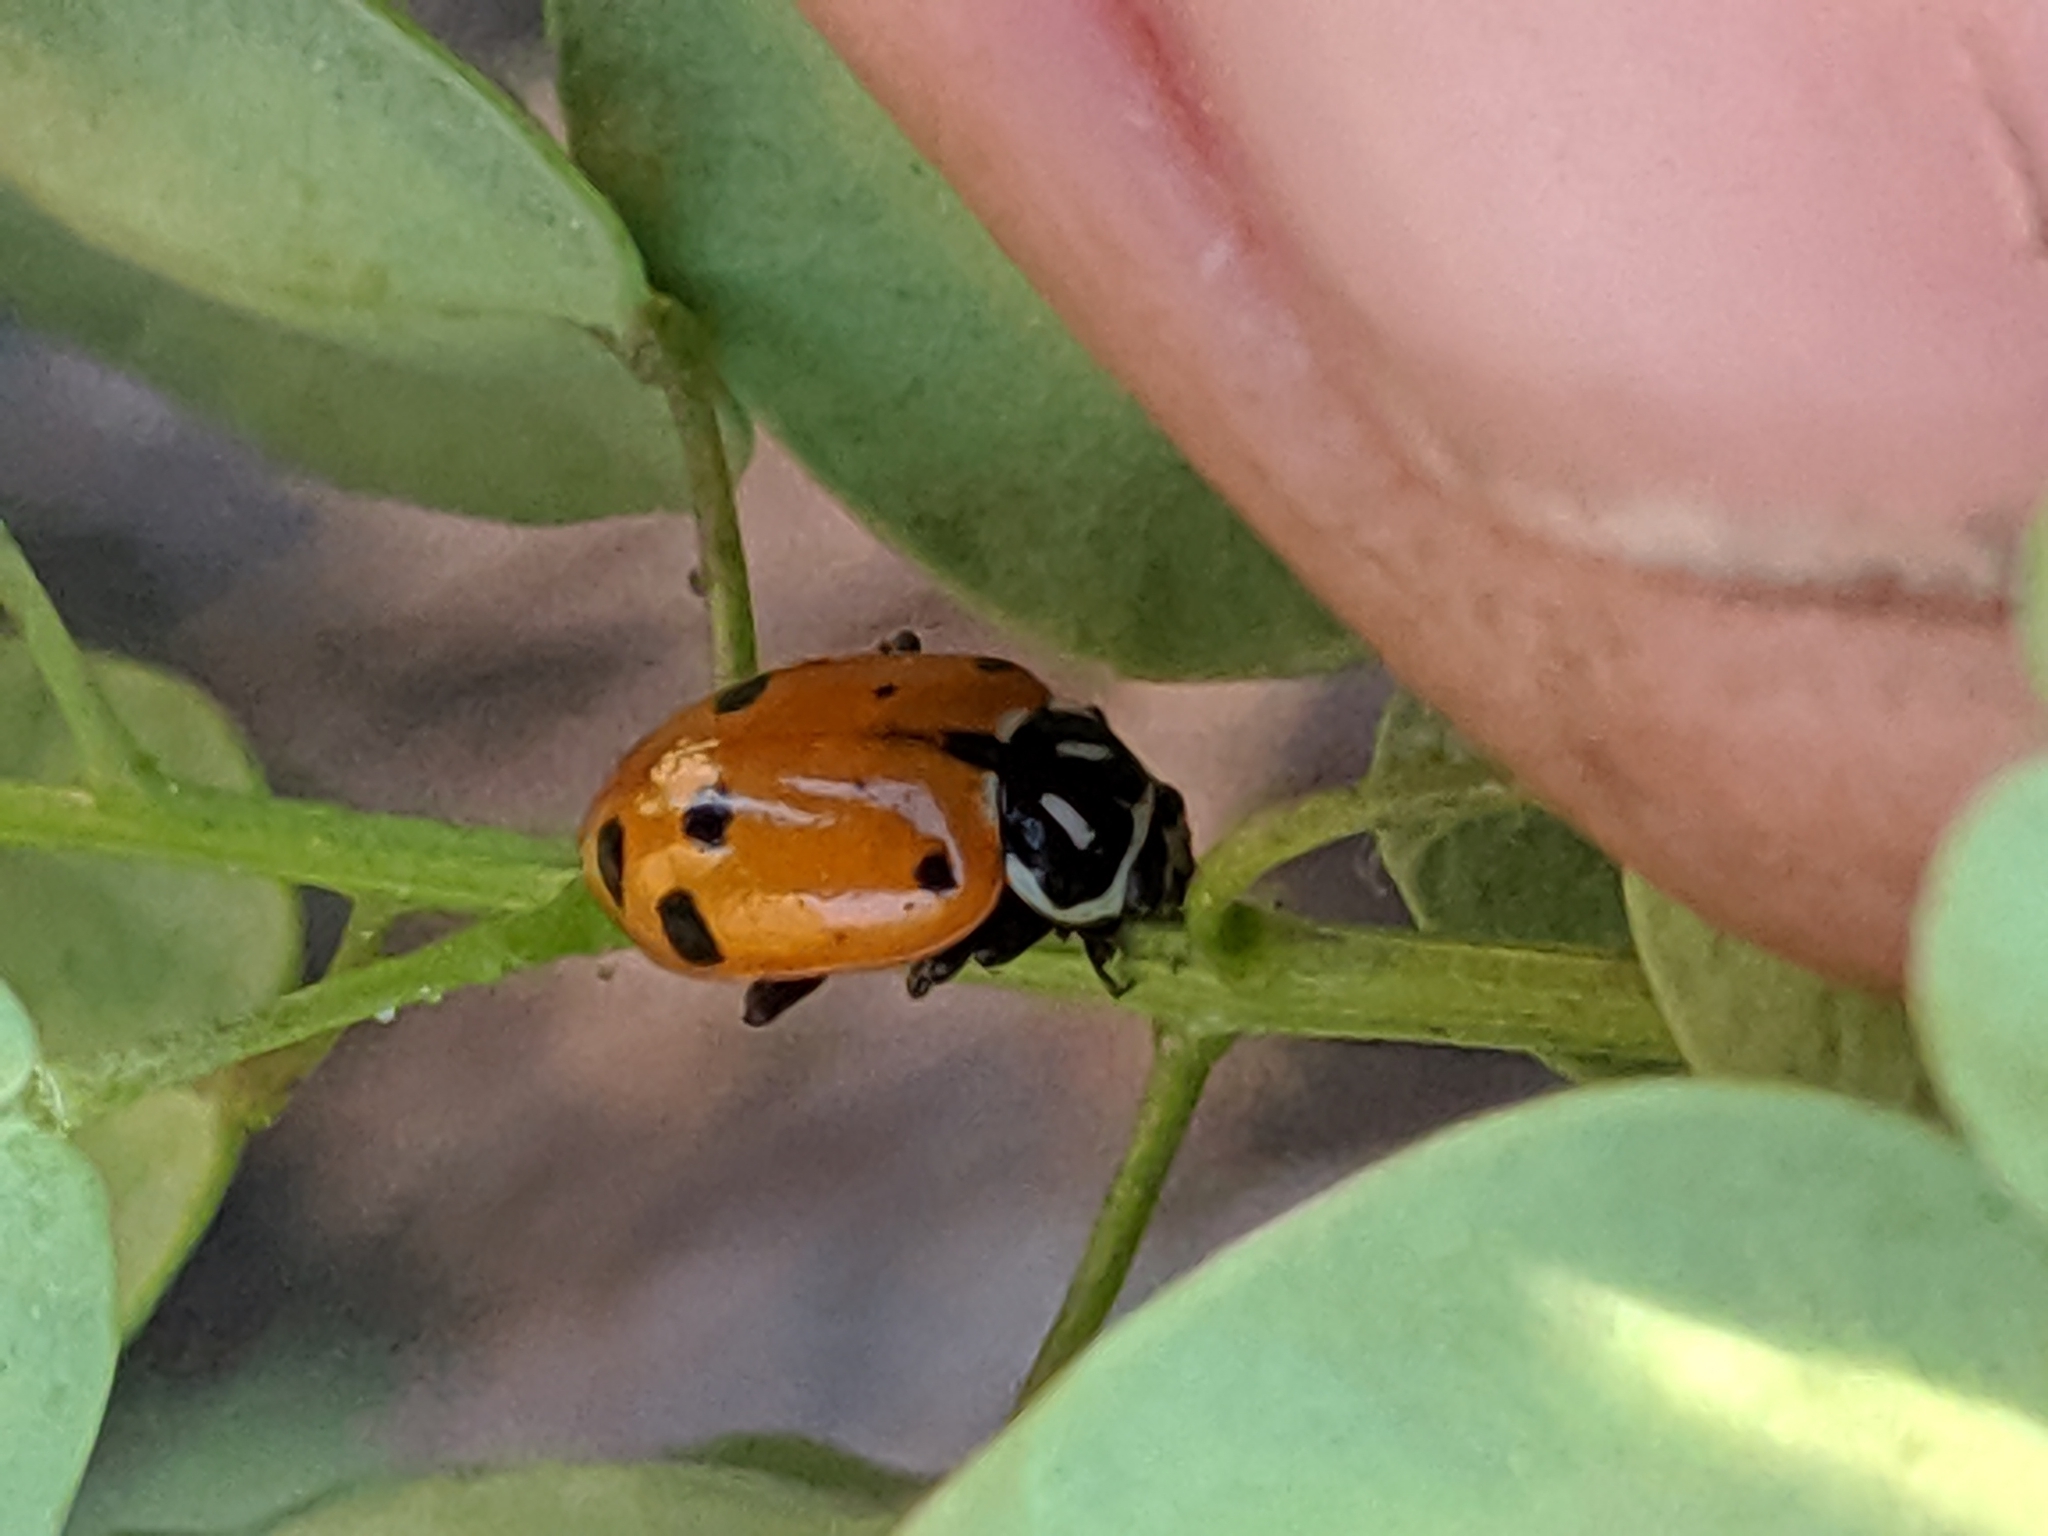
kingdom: Animalia
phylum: Arthropoda
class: Insecta
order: Coleoptera
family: Coccinellidae
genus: Hippodamia
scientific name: Hippodamia convergens
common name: Convergent lady beetle
